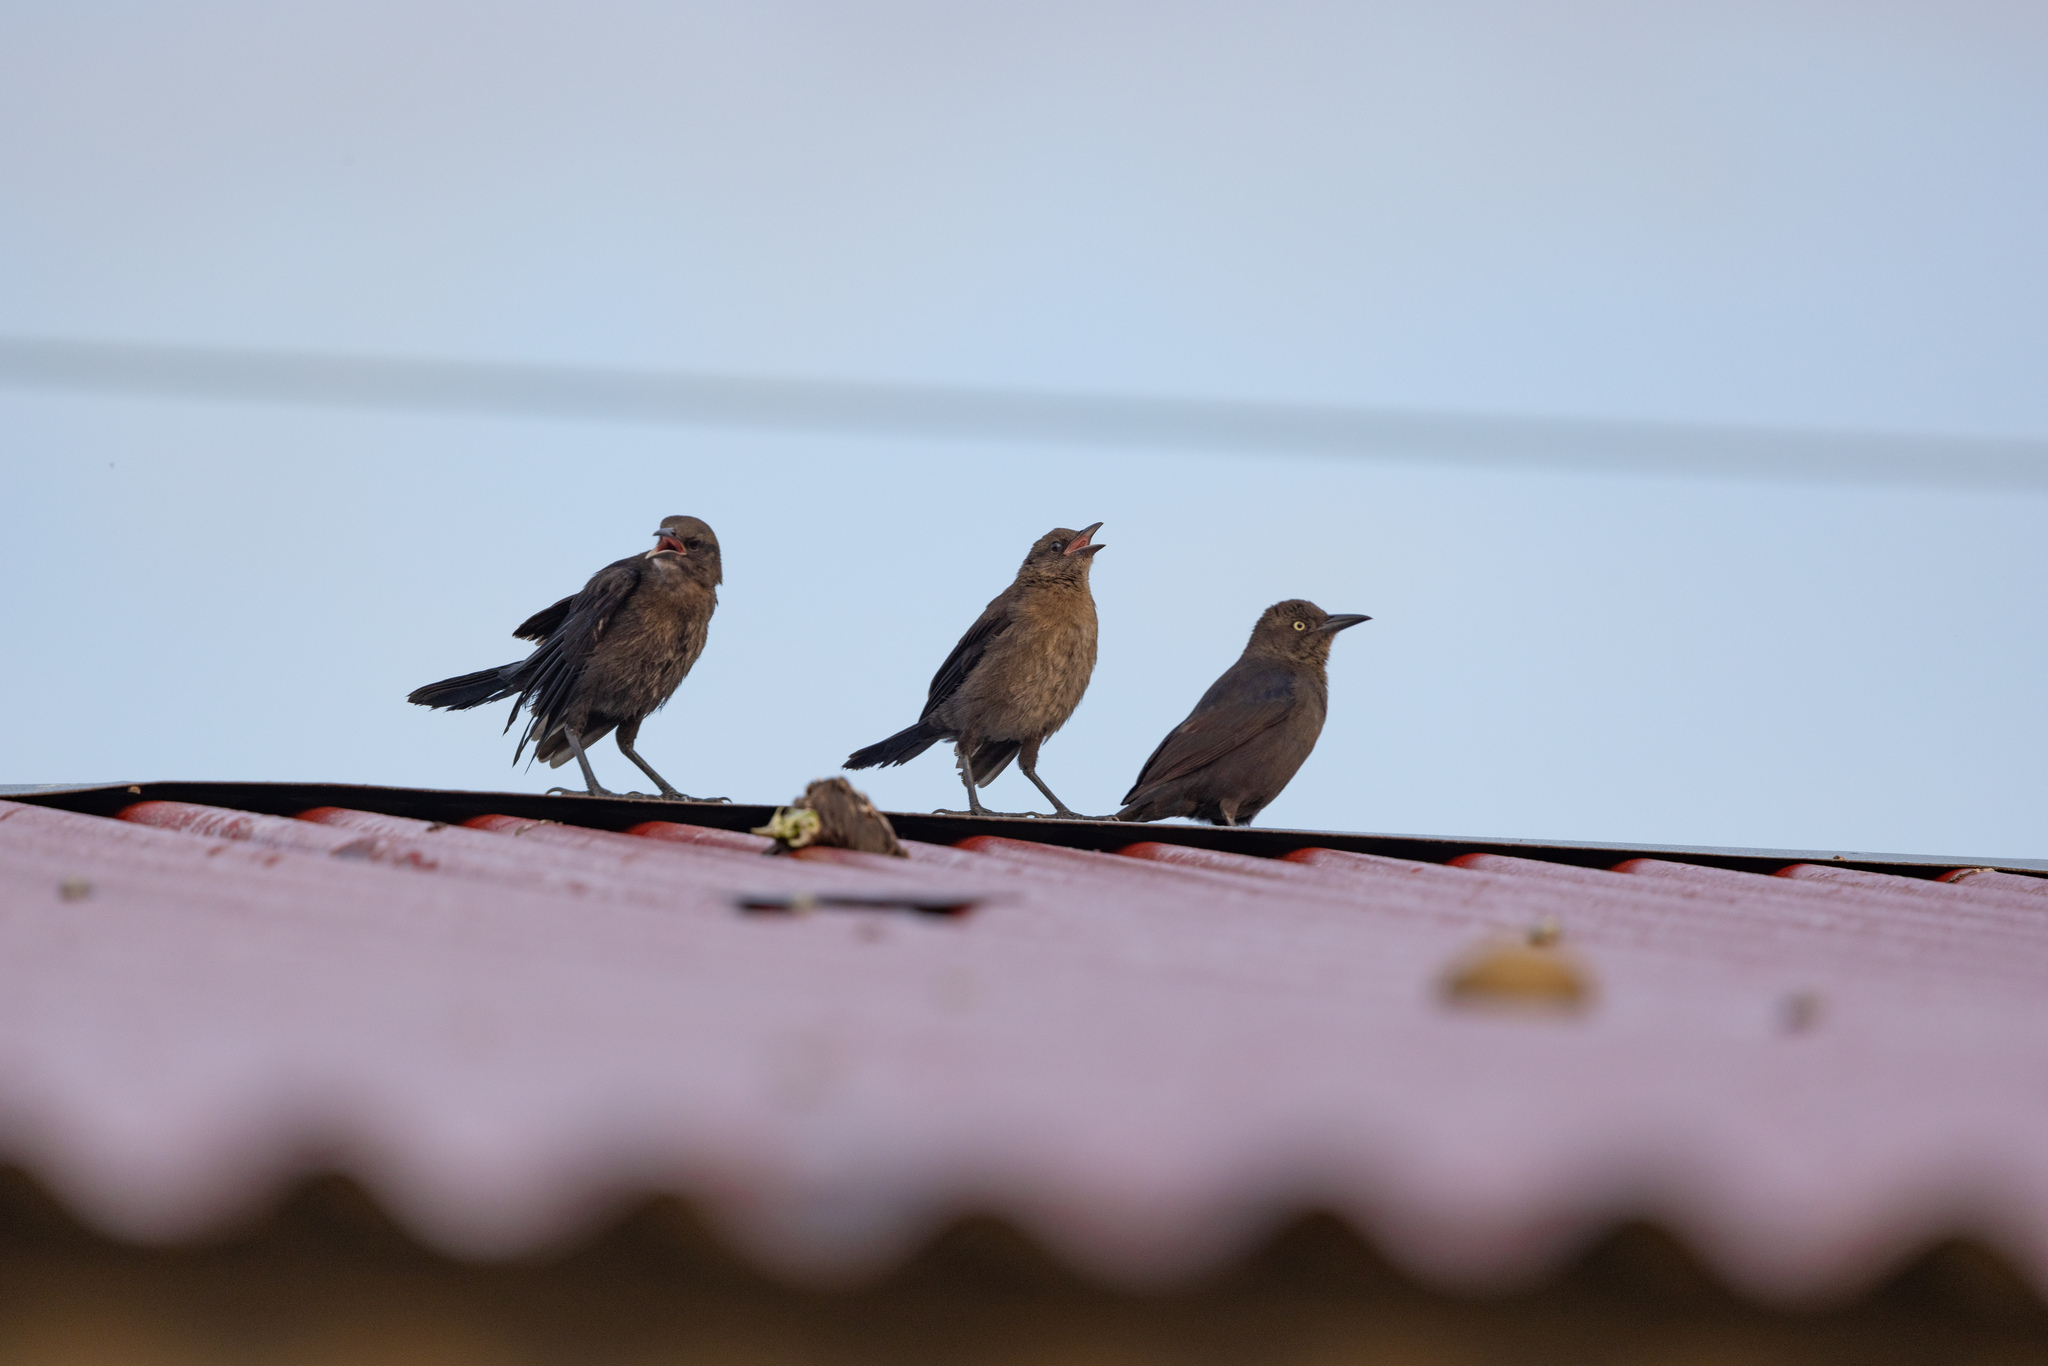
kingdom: Animalia
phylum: Chordata
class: Aves
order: Passeriformes
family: Icteridae
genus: Quiscalus
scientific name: Quiscalus lugubris
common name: Carib grackle
